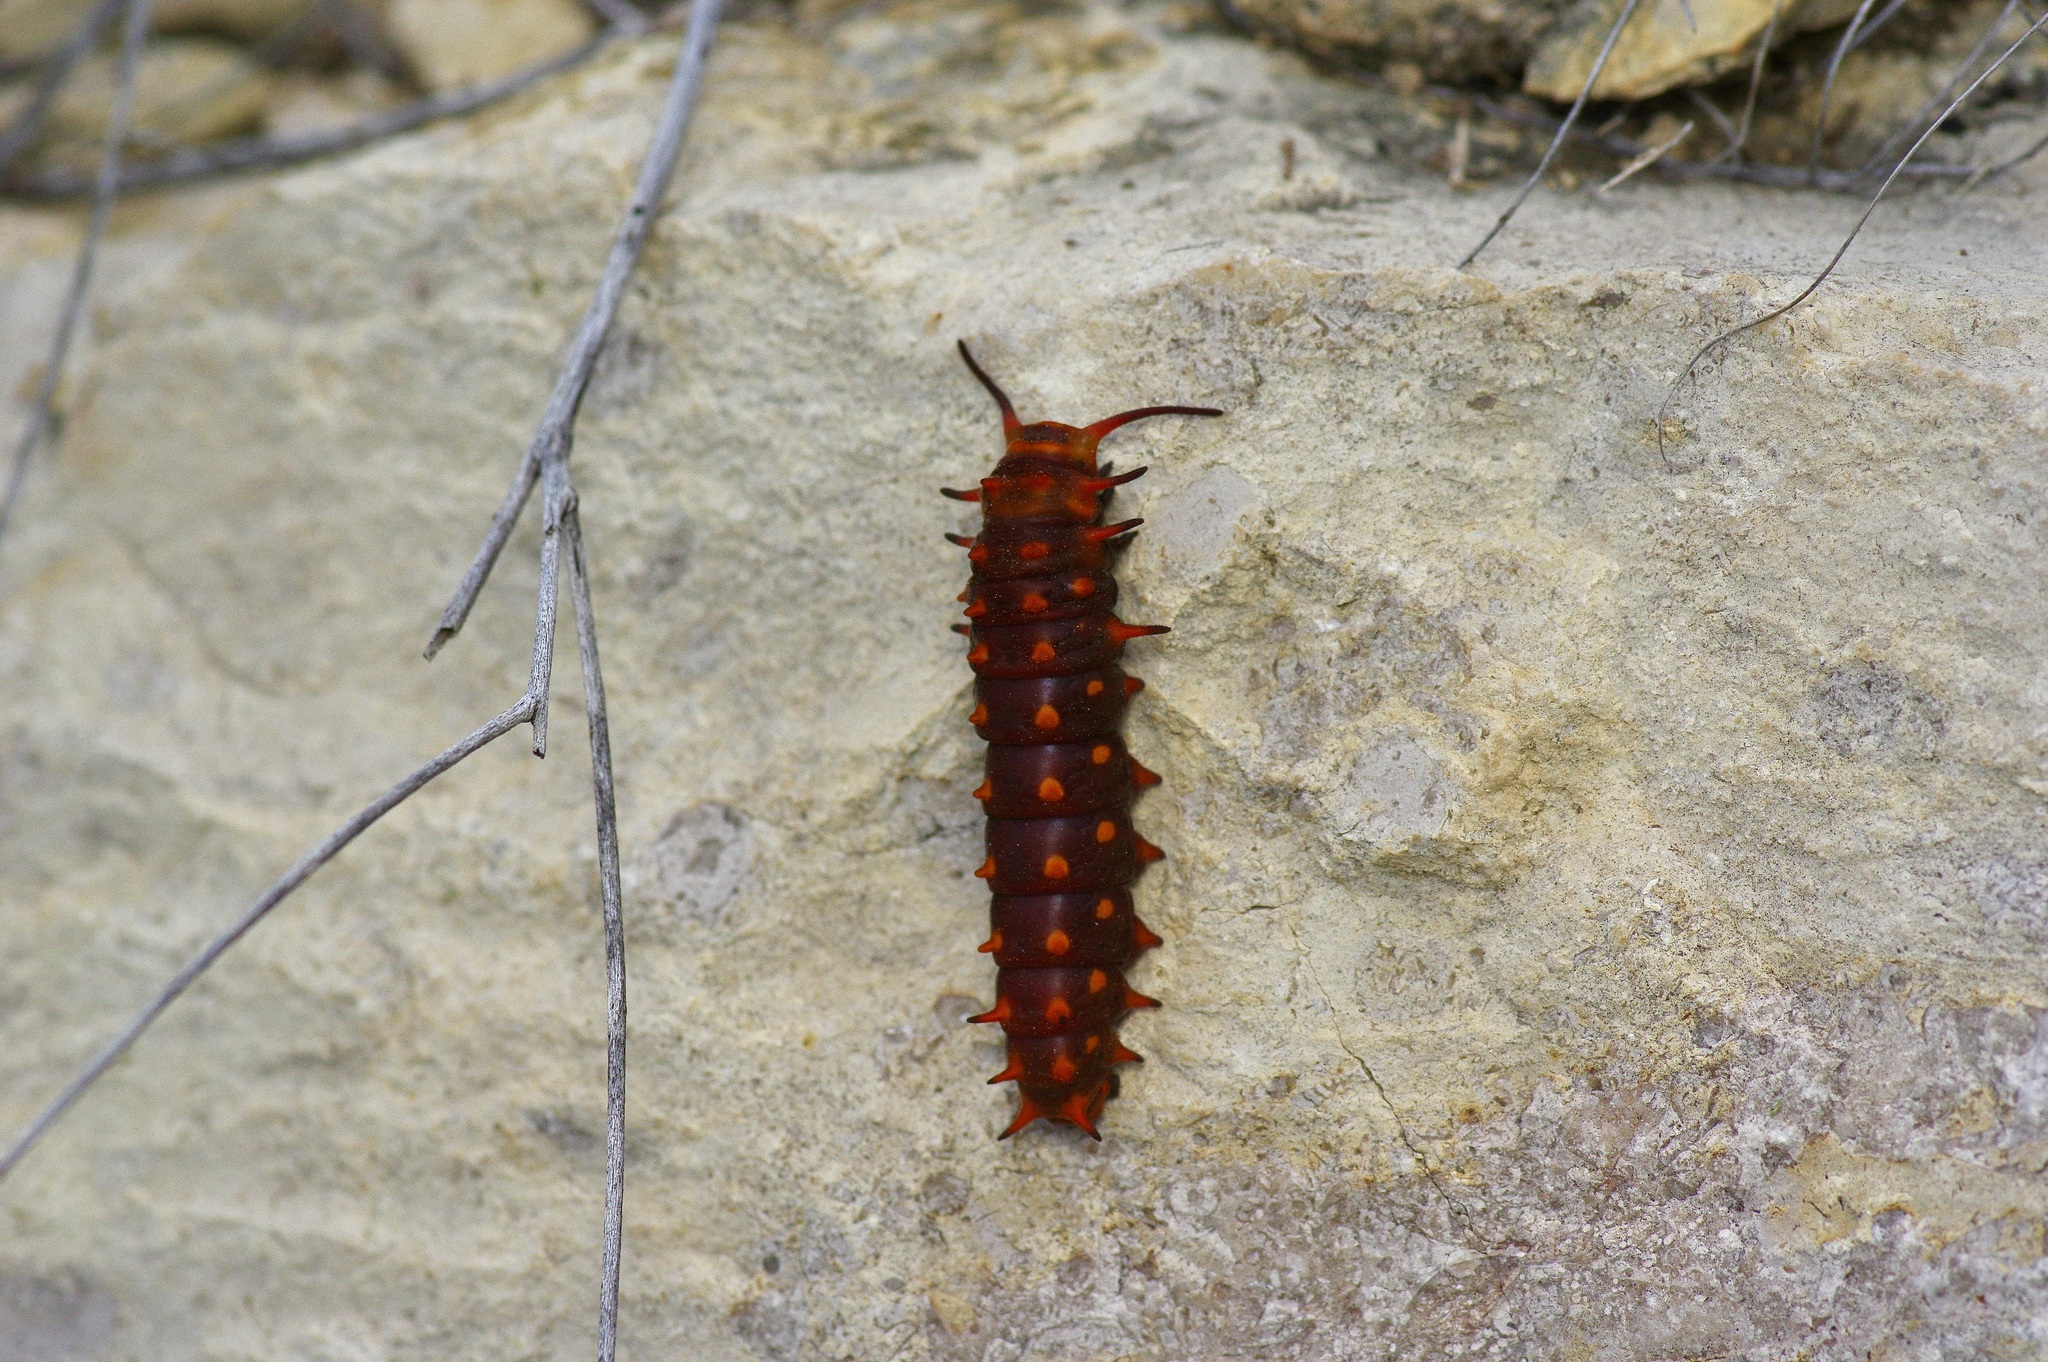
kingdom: Animalia
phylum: Arthropoda
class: Insecta
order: Lepidoptera
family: Papilionidae
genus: Battus
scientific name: Battus philenor
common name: Pipevine swallowtail
